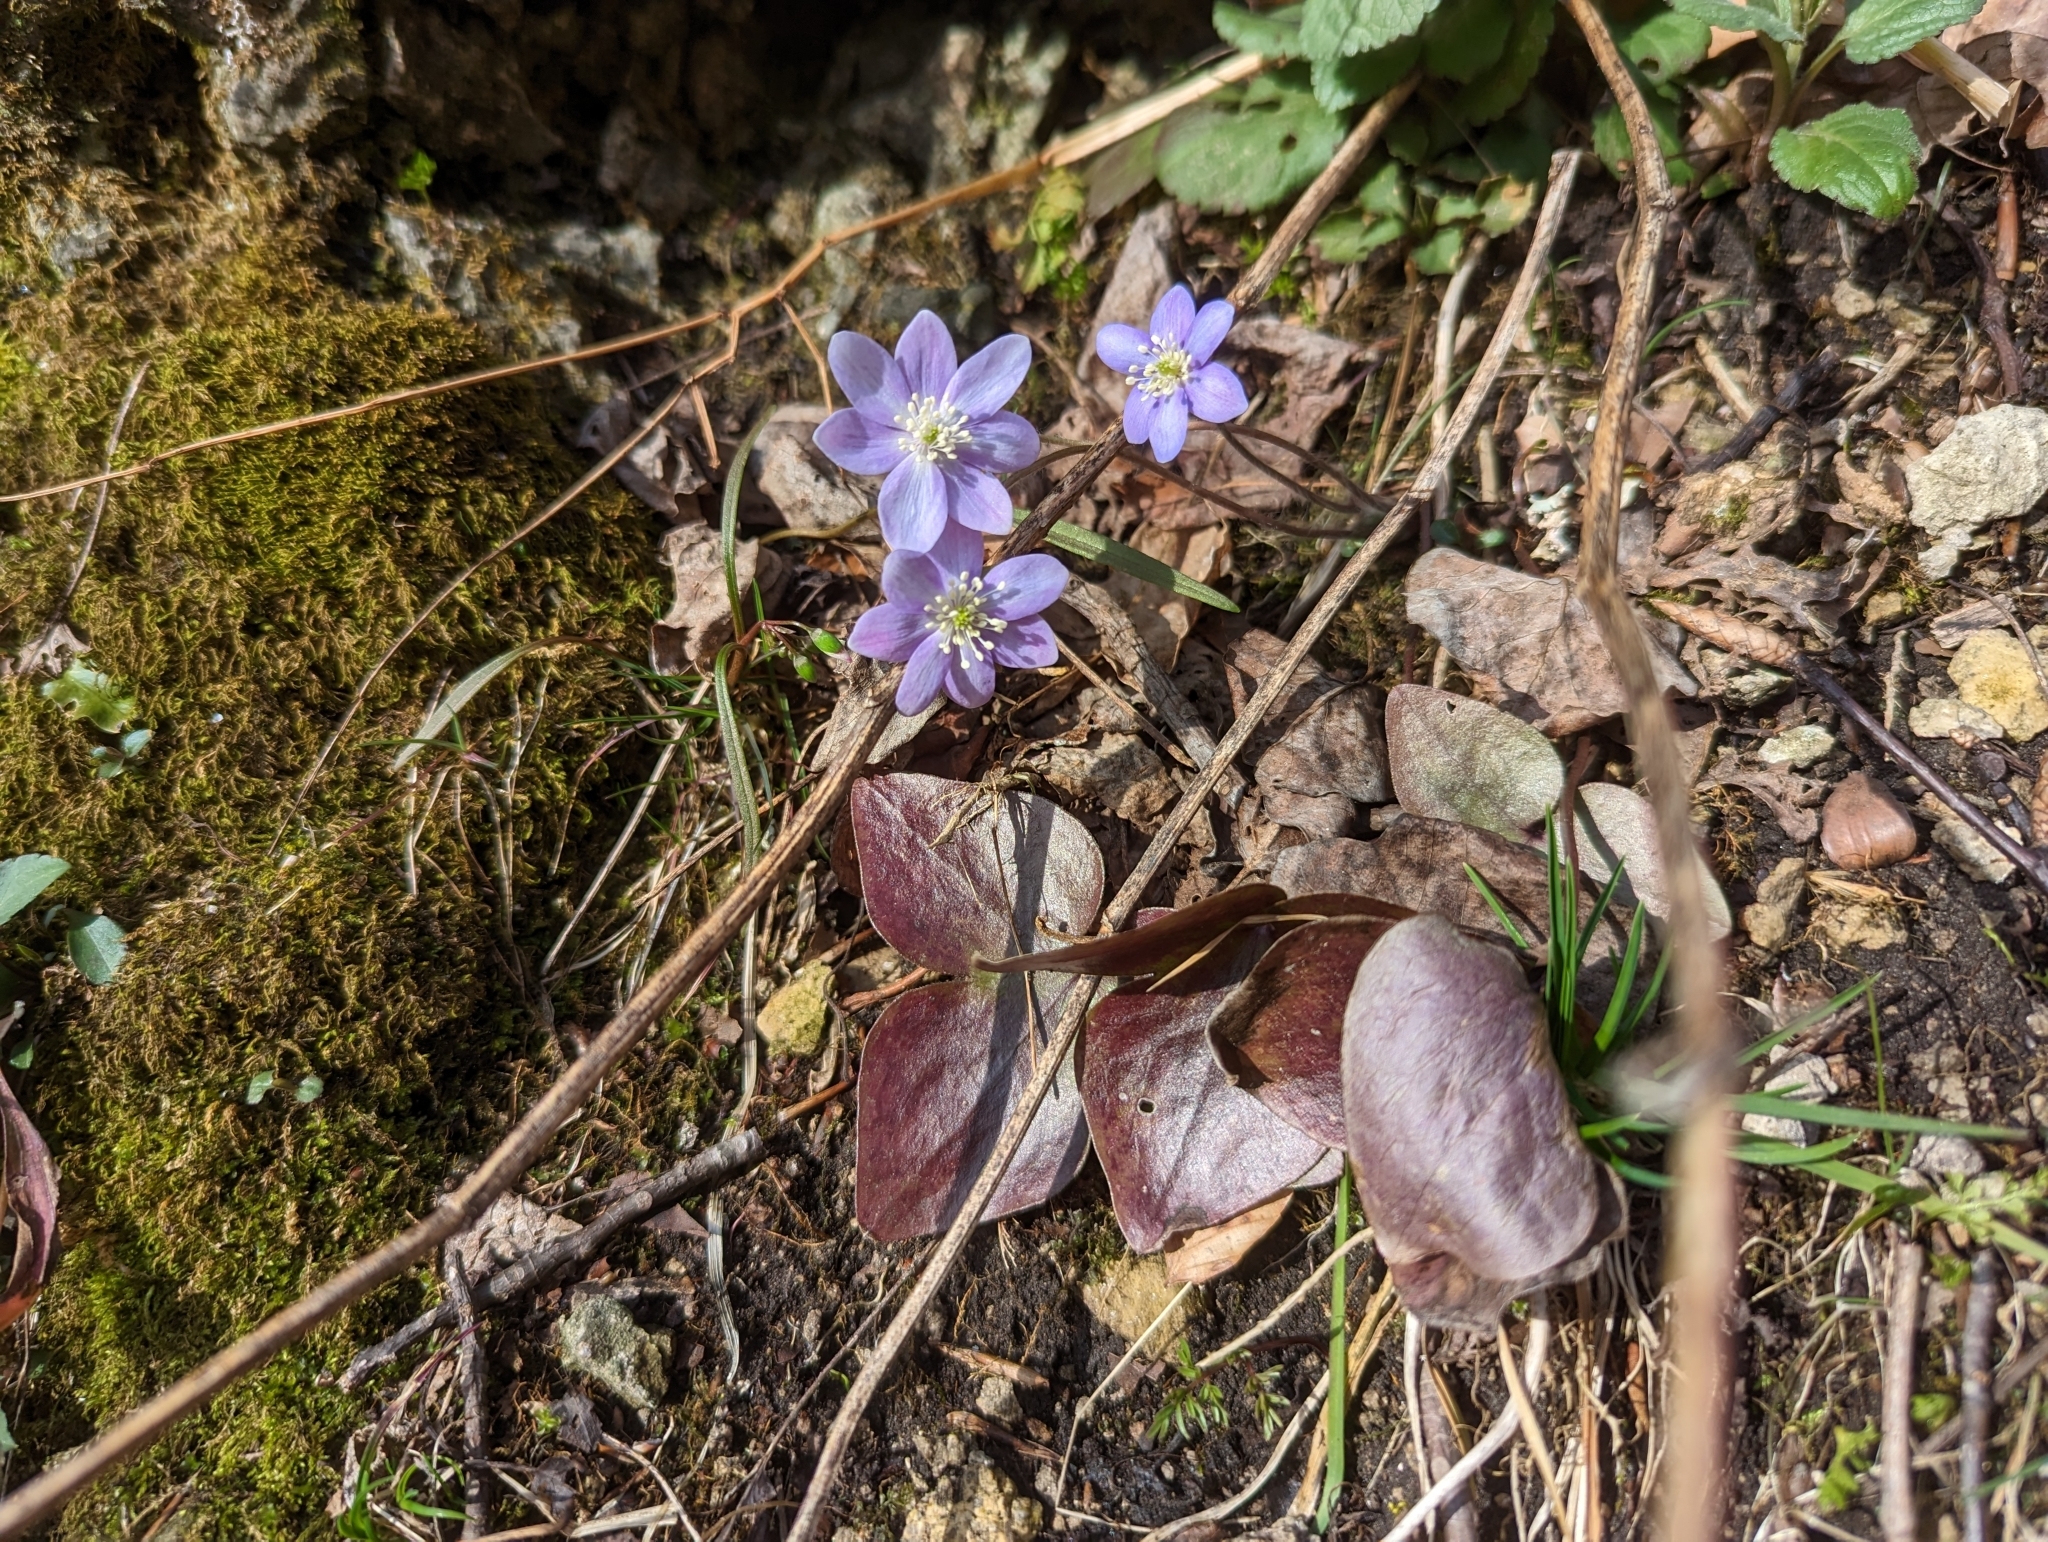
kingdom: Plantae
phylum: Tracheophyta
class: Magnoliopsida
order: Ranunculales
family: Ranunculaceae
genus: Hepatica
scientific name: Hepatica acutiloba
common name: Sharp-lobed hepatica
